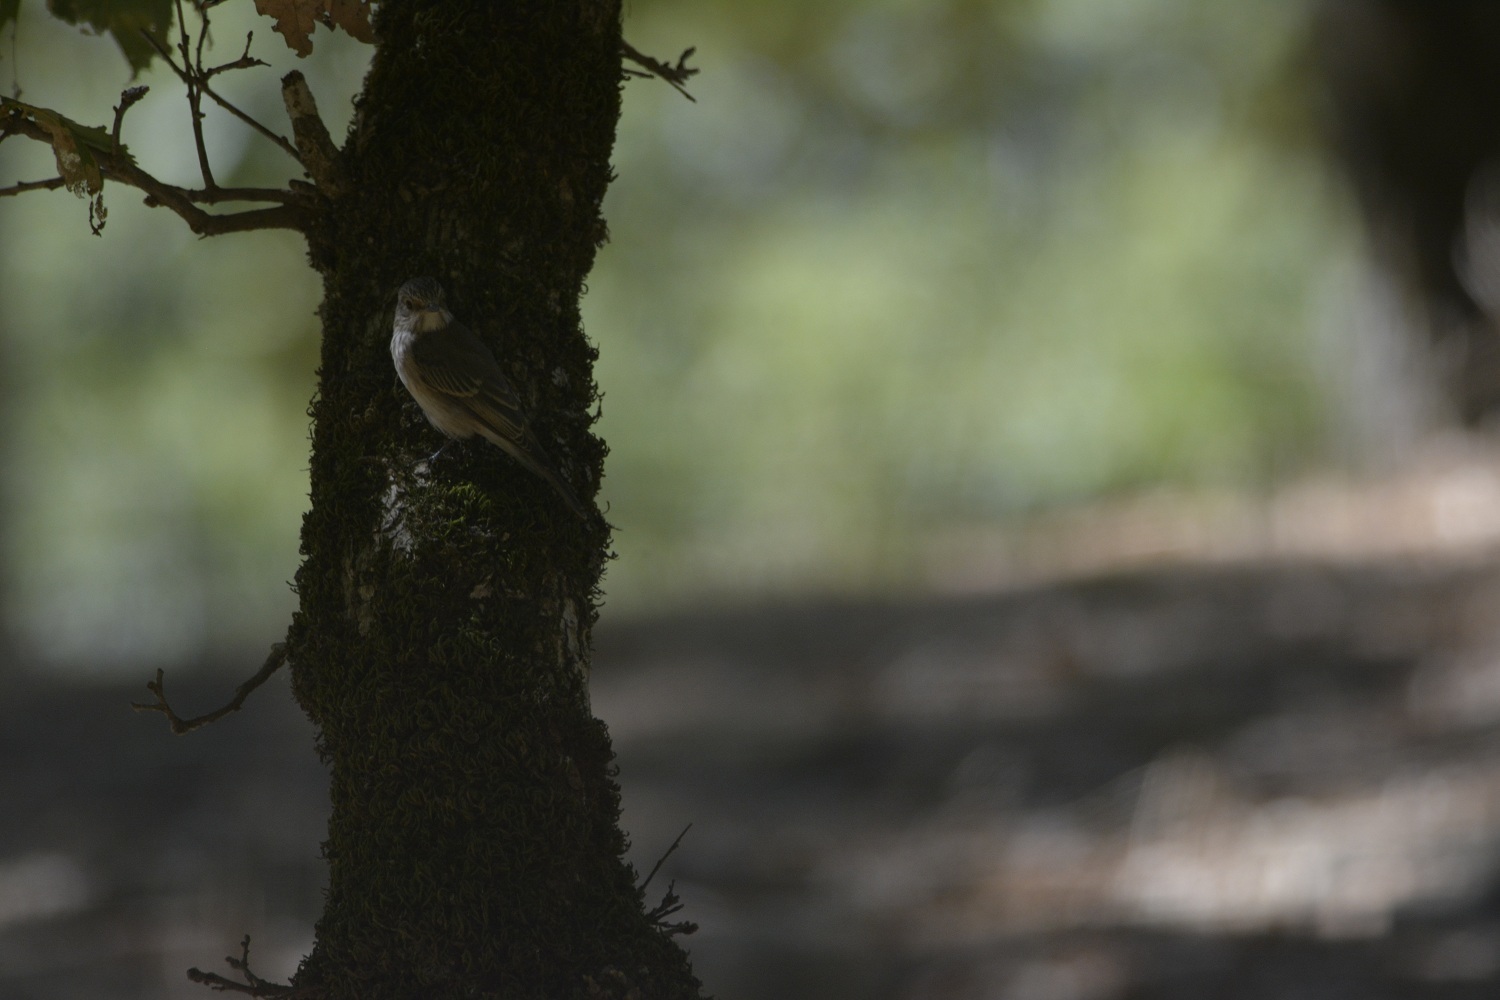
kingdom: Animalia
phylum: Chordata
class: Aves
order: Passeriformes
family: Muscicapidae
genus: Muscicapa
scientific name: Muscicapa striata
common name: Spotted flycatcher
